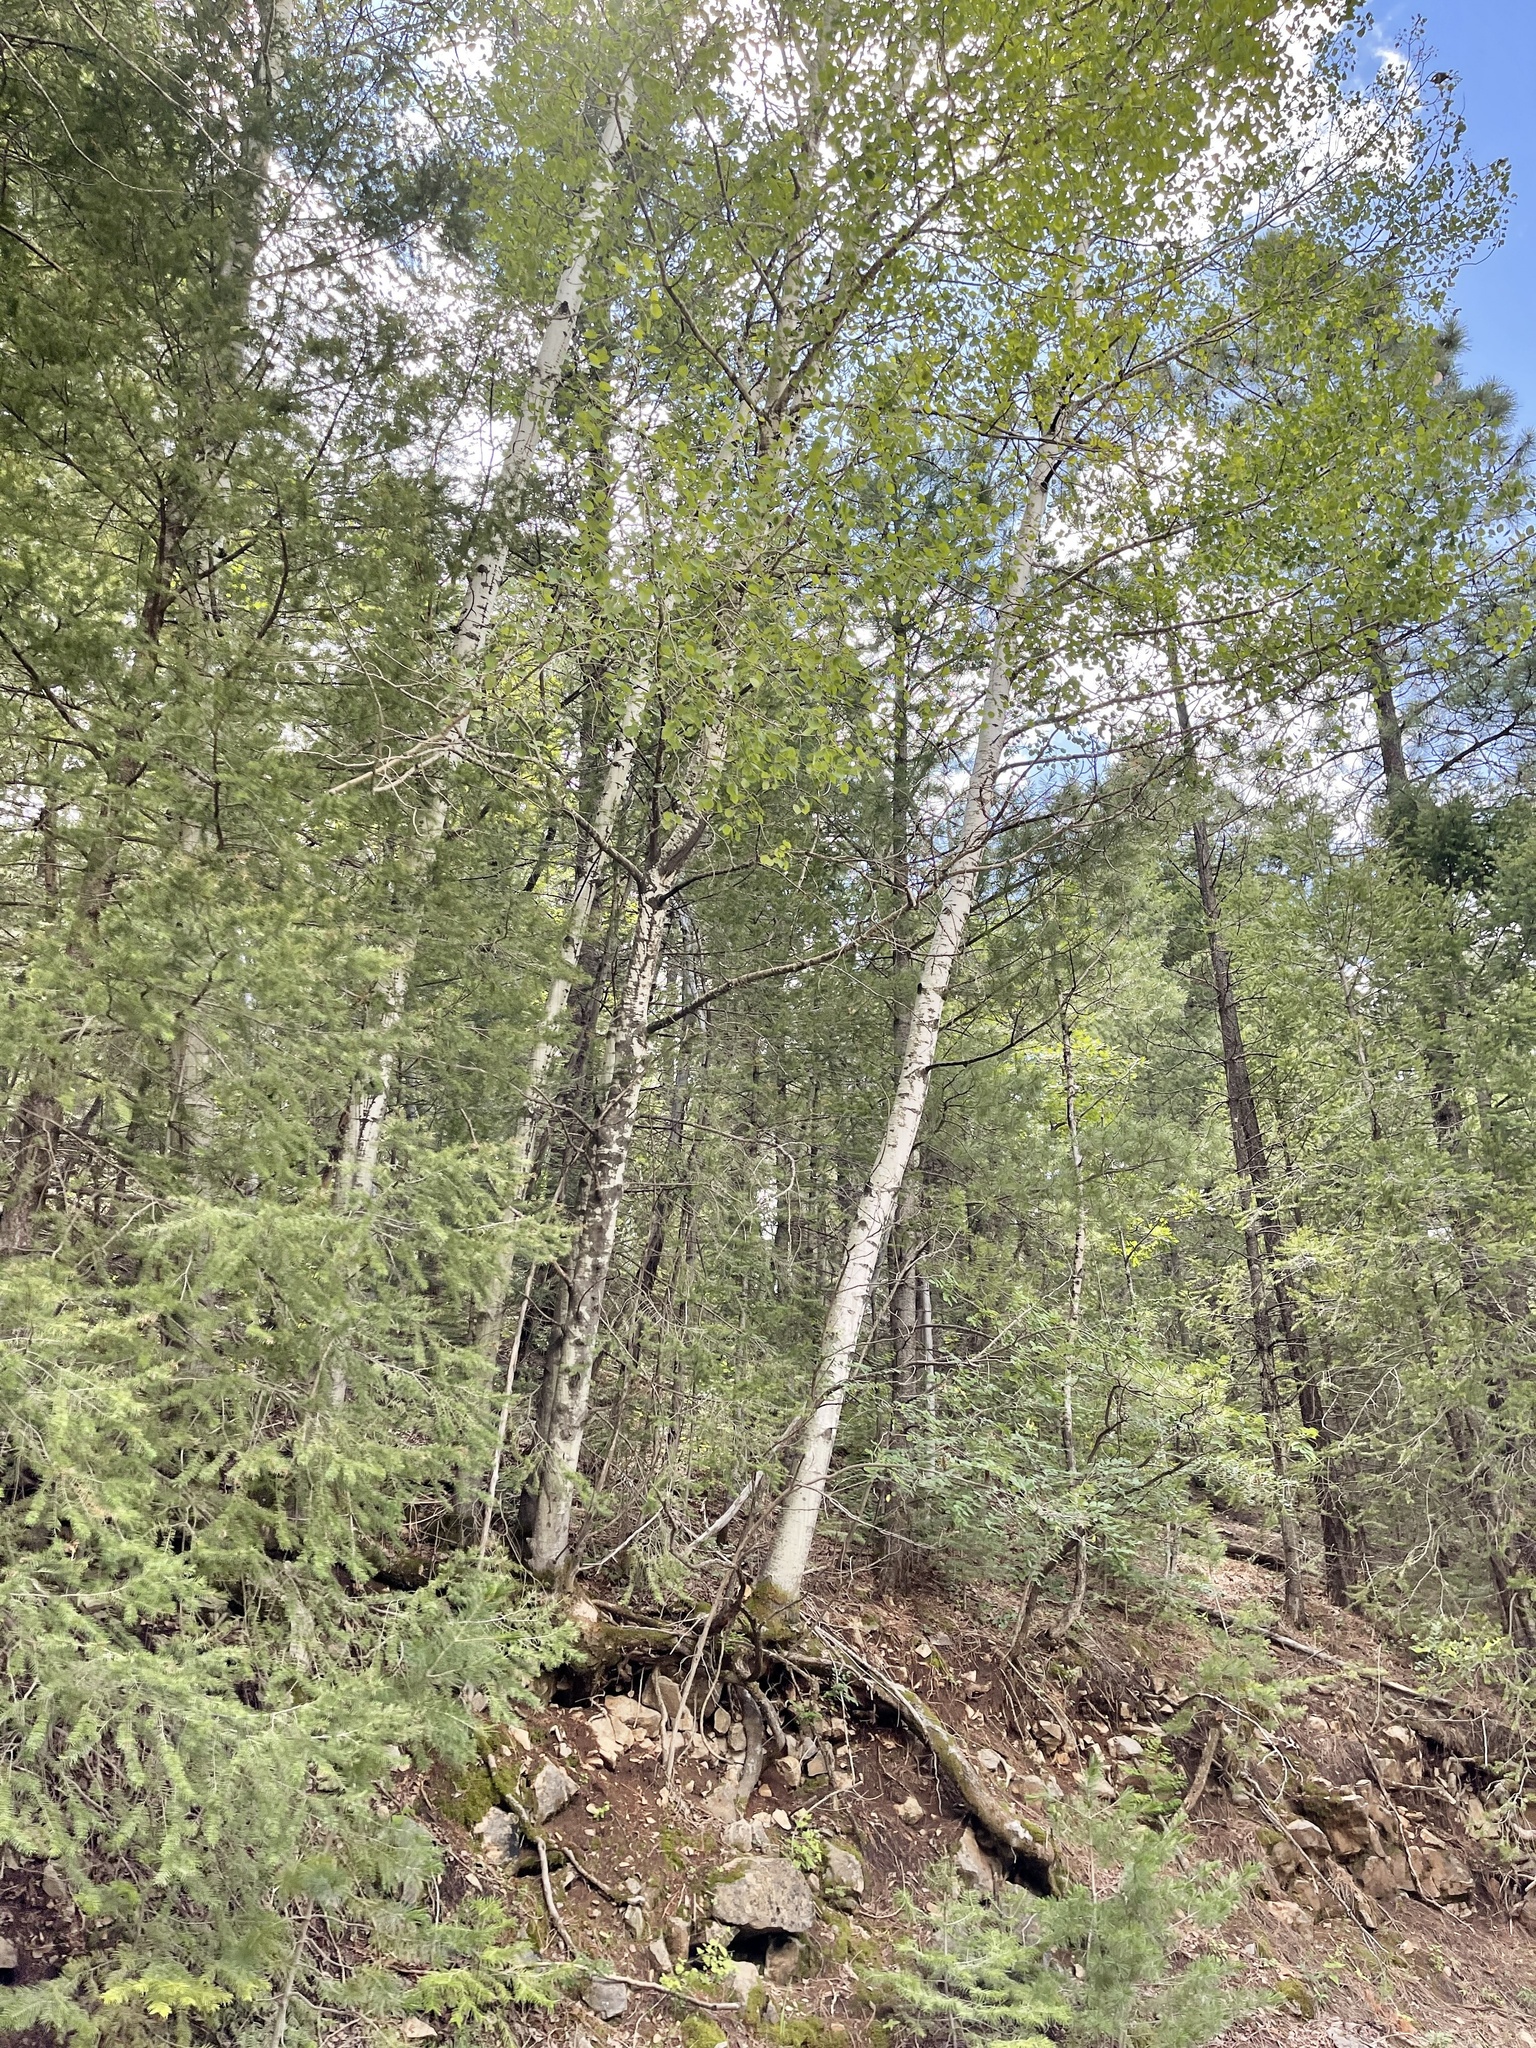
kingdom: Plantae
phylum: Tracheophyta
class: Magnoliopsida
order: Malpighiales
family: Salicaceae
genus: Populus
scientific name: Populus tremuloides
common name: Quaking aspen
